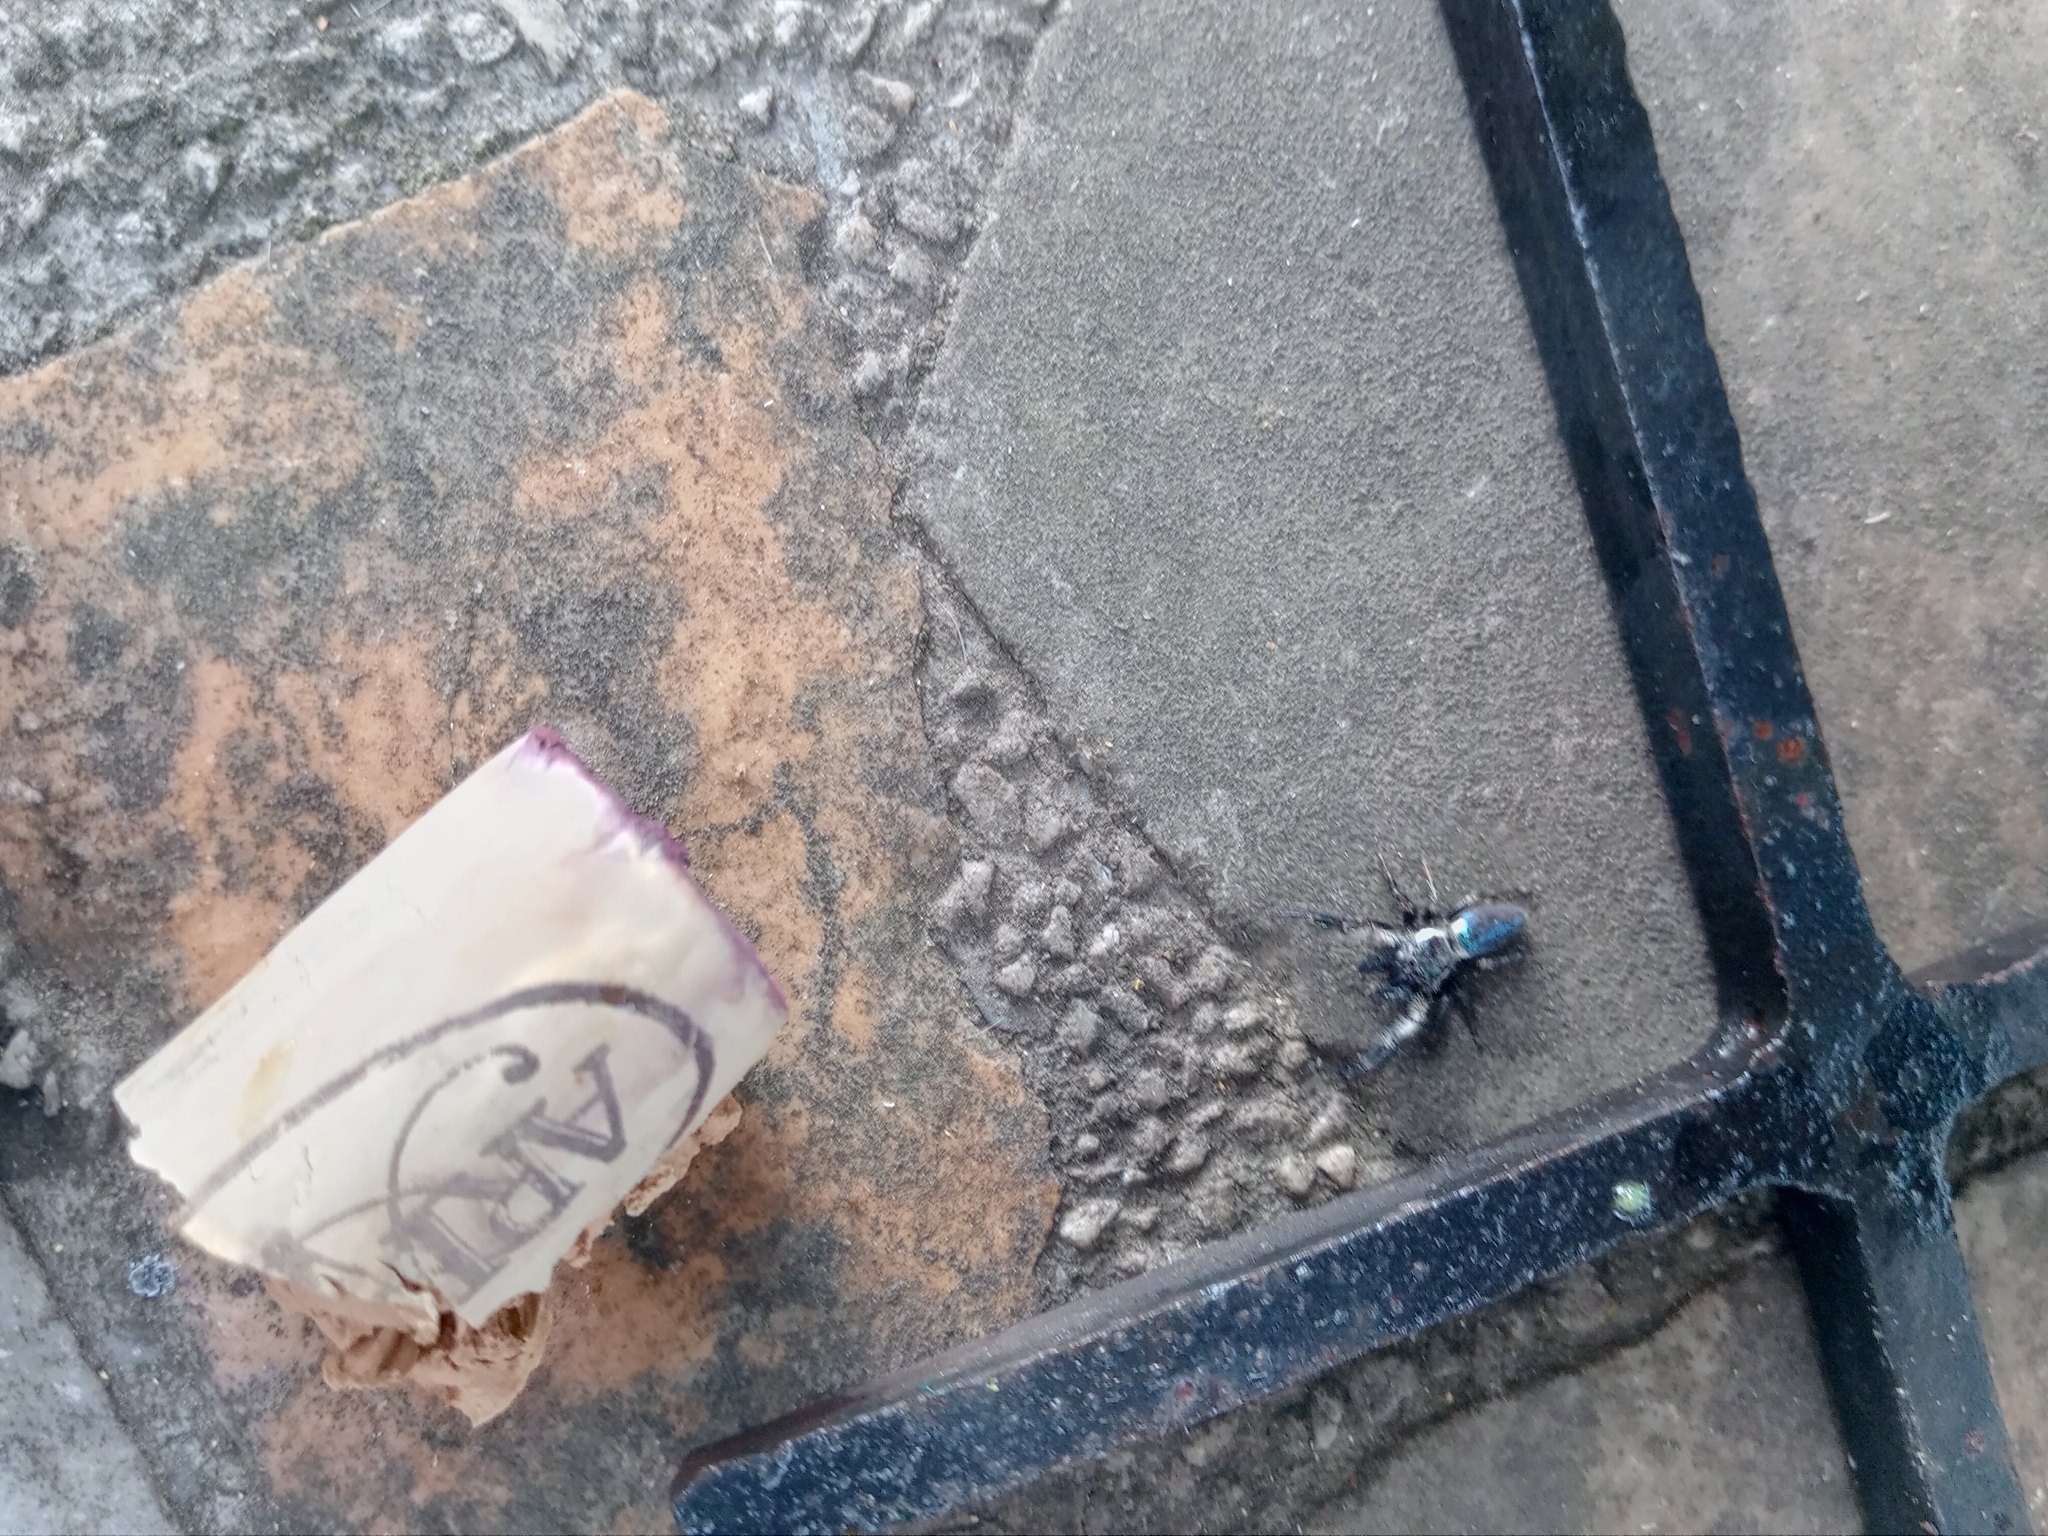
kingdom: Animalia
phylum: Arthropoda
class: Arachnida
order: Araneae
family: Salticidae
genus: Mburuvicha
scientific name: Mburuvicha galianoae
